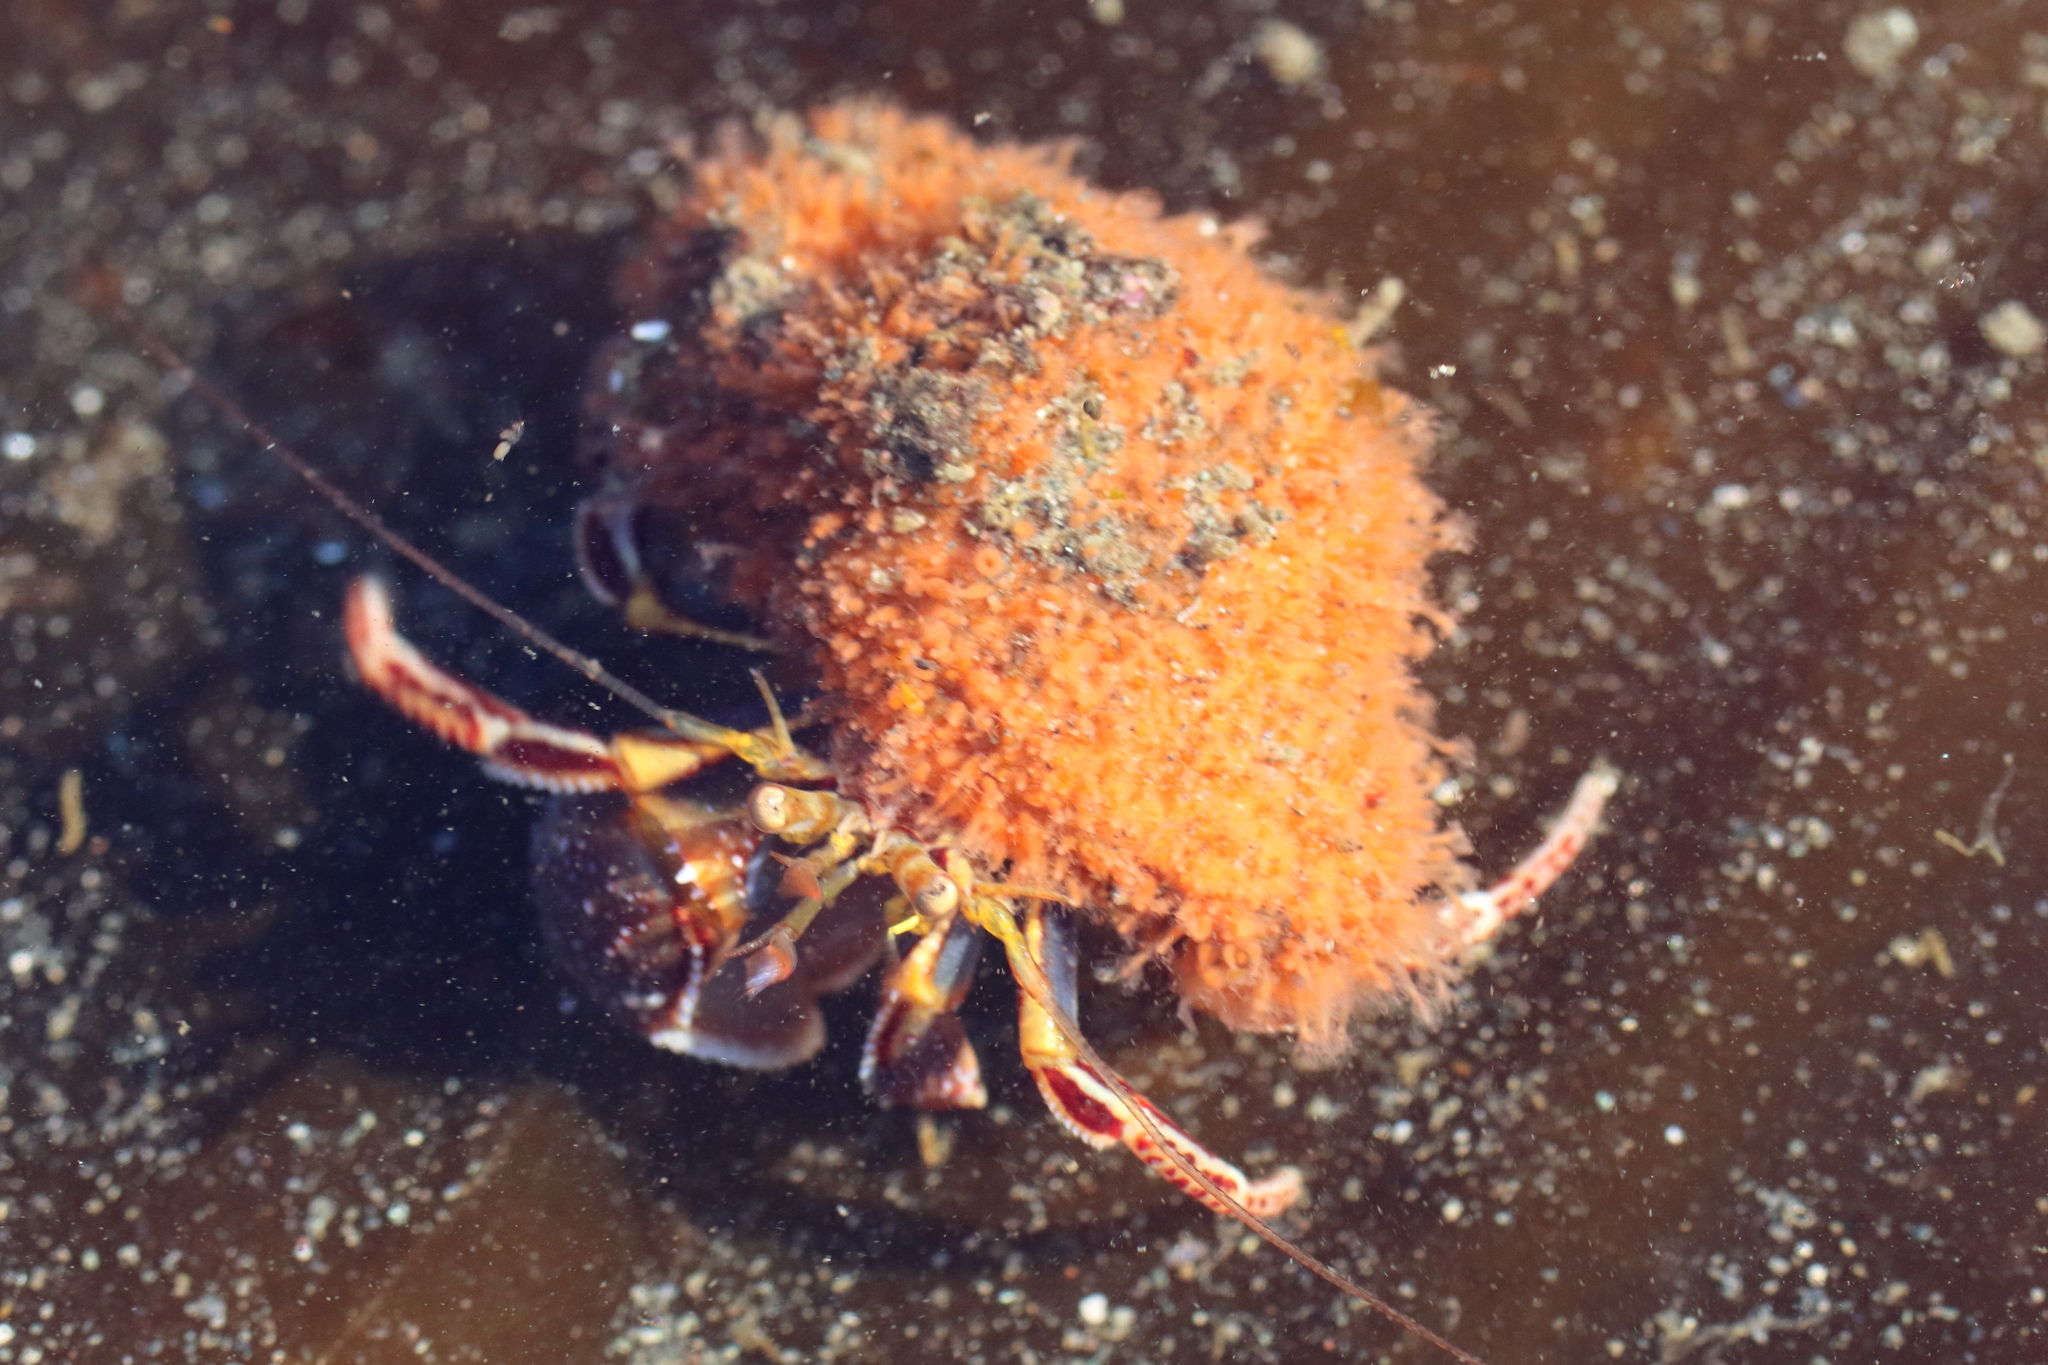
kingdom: Animalia
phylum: Arthropoda
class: Malacostraca
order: Decapoda
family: Paguridae
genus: Elassochirus
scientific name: Elassochirus tenuimanus
